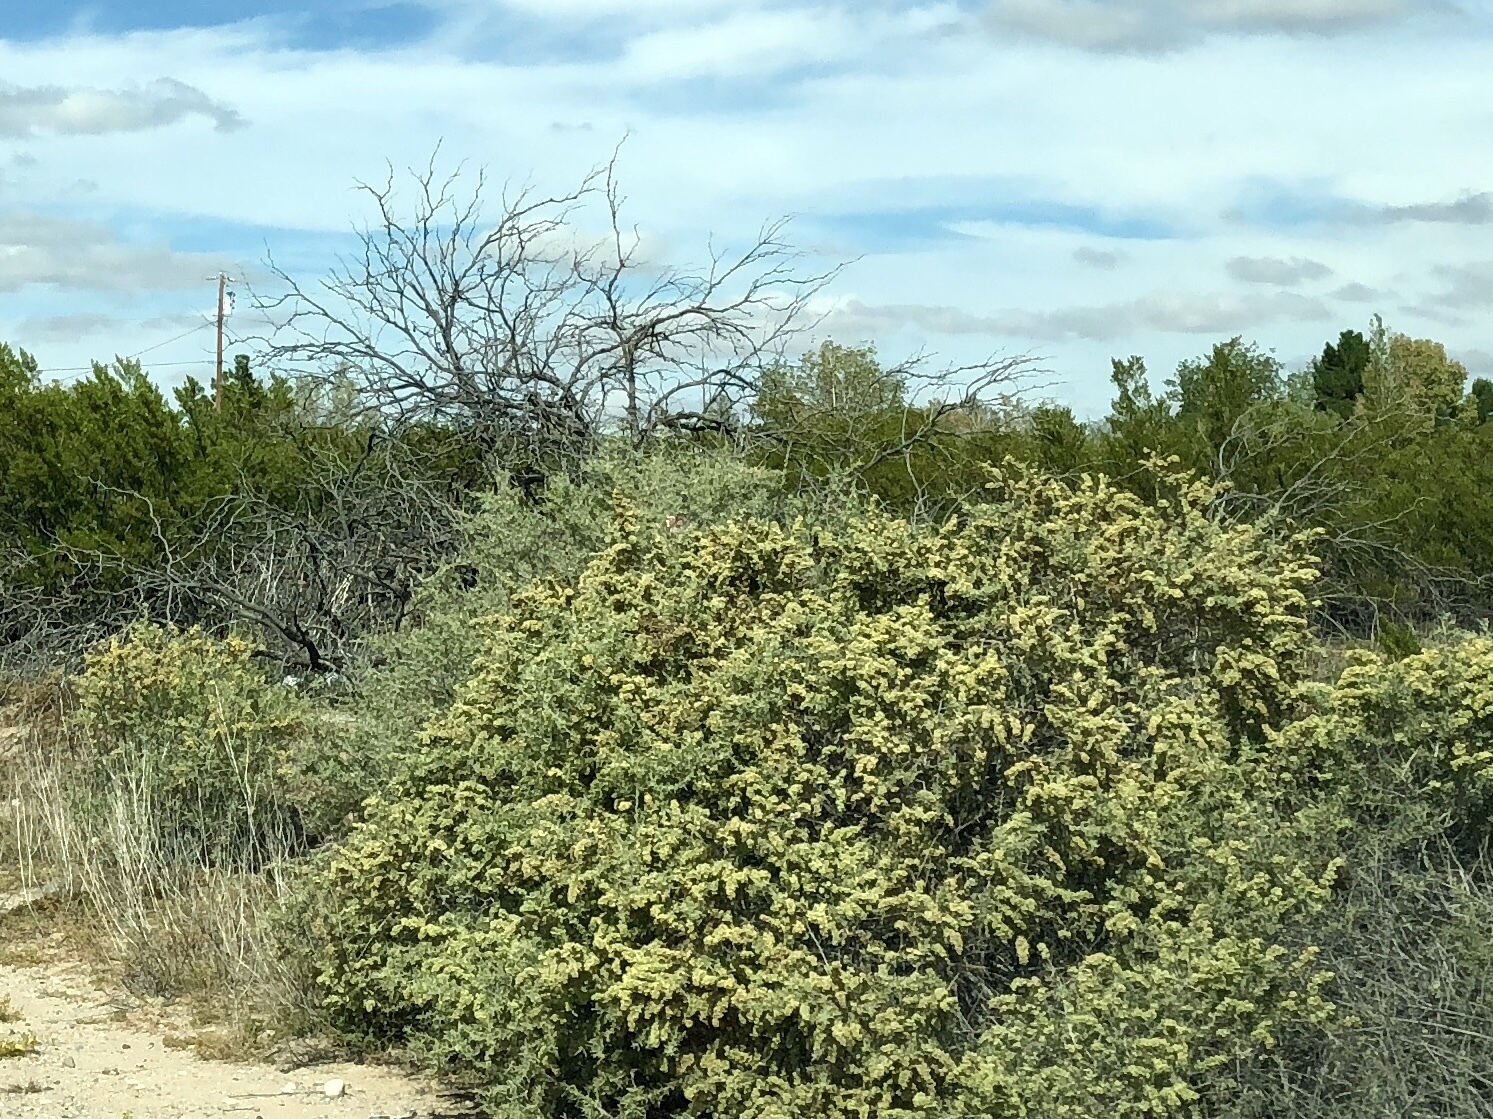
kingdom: Plantae
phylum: Tracheophyta
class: Magnoliopsida
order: Caryophyllales
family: Amaranthaceae
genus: Atriplex
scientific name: Atriplex canescens
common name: Four-wing saltbush
